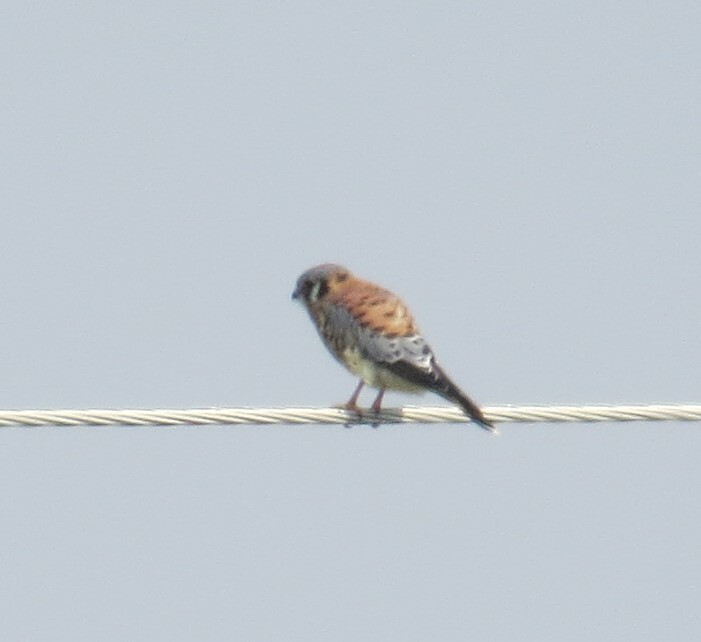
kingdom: Animalia
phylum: Chordata
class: Aves
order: Falconiformes
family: Falconidae
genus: Falco
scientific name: Falco sparverius
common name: American kestrel
